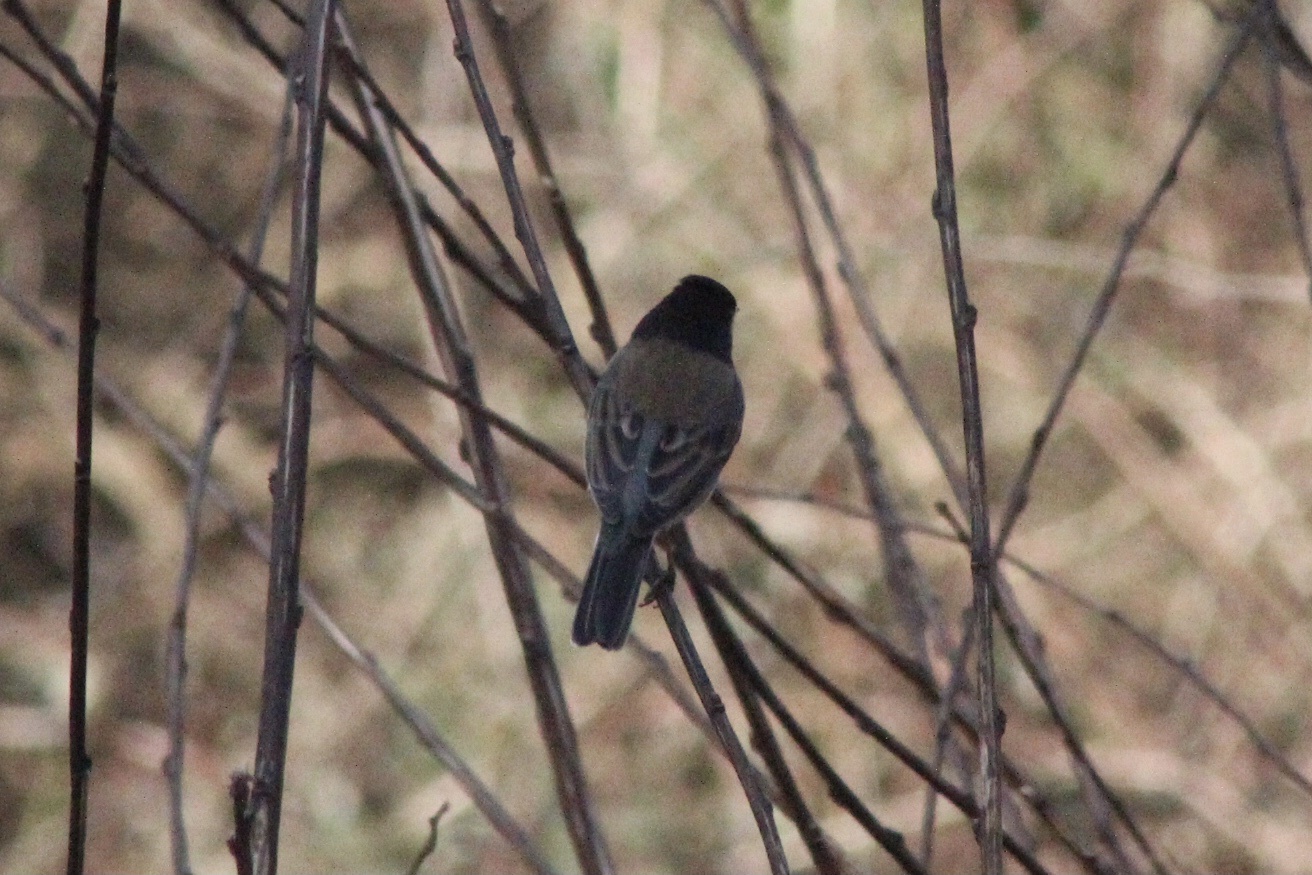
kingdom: Animalia
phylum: Chordata
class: Aves
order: Passeriformes
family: Passerellidae
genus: Junco
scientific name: Junco hyemalis
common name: Dark-eyed junco
